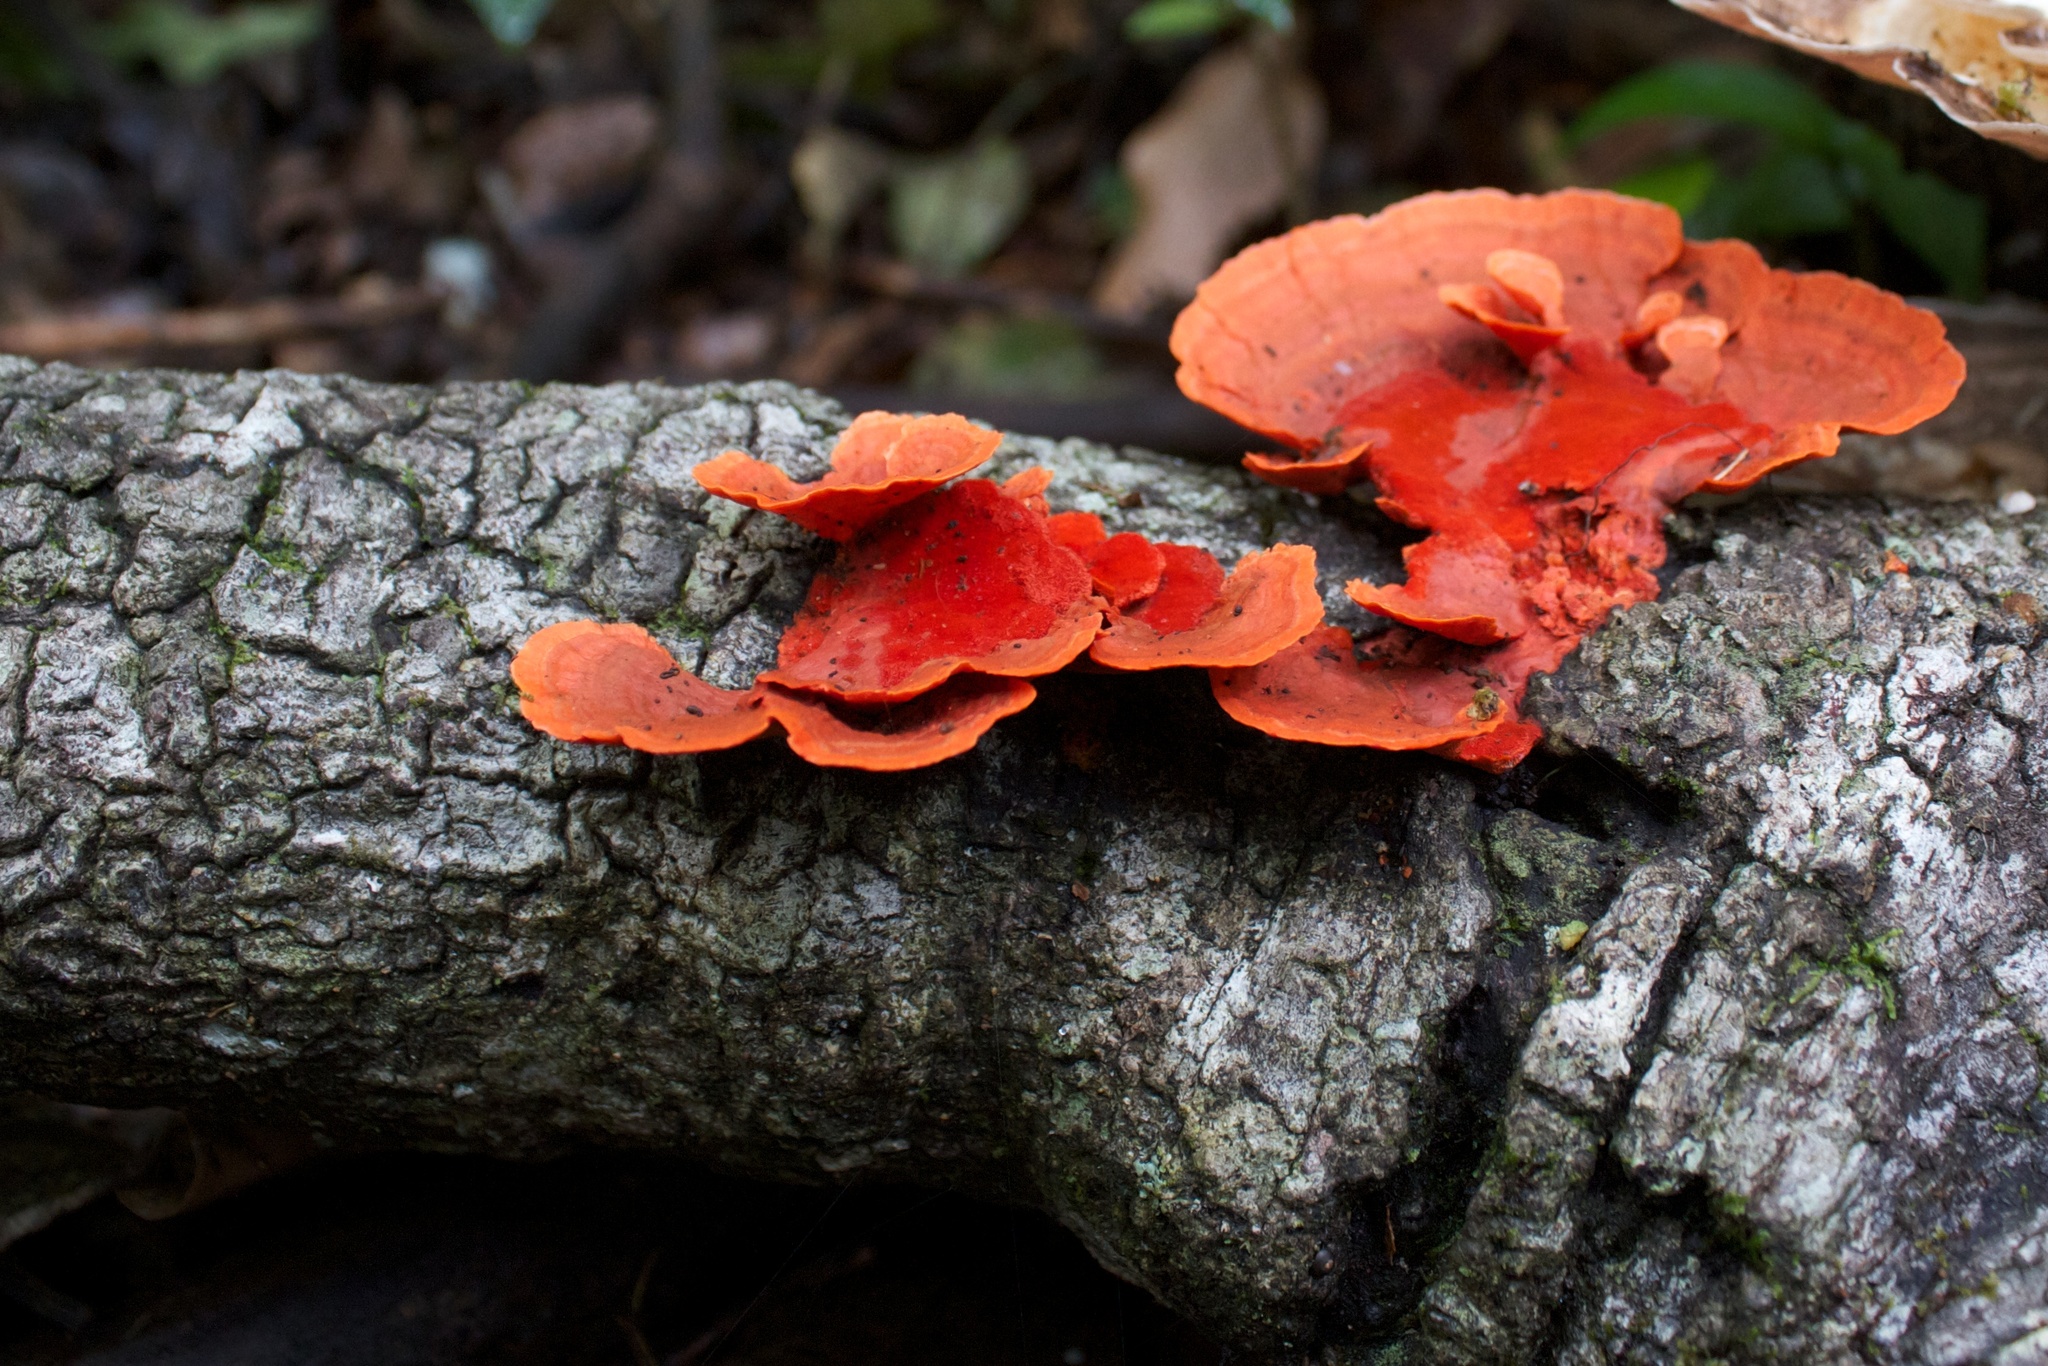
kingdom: Fungi
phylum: Basidiomycota
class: Agaricomycetes
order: Polyporales
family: Polyporaceae
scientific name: Polyporaceae
